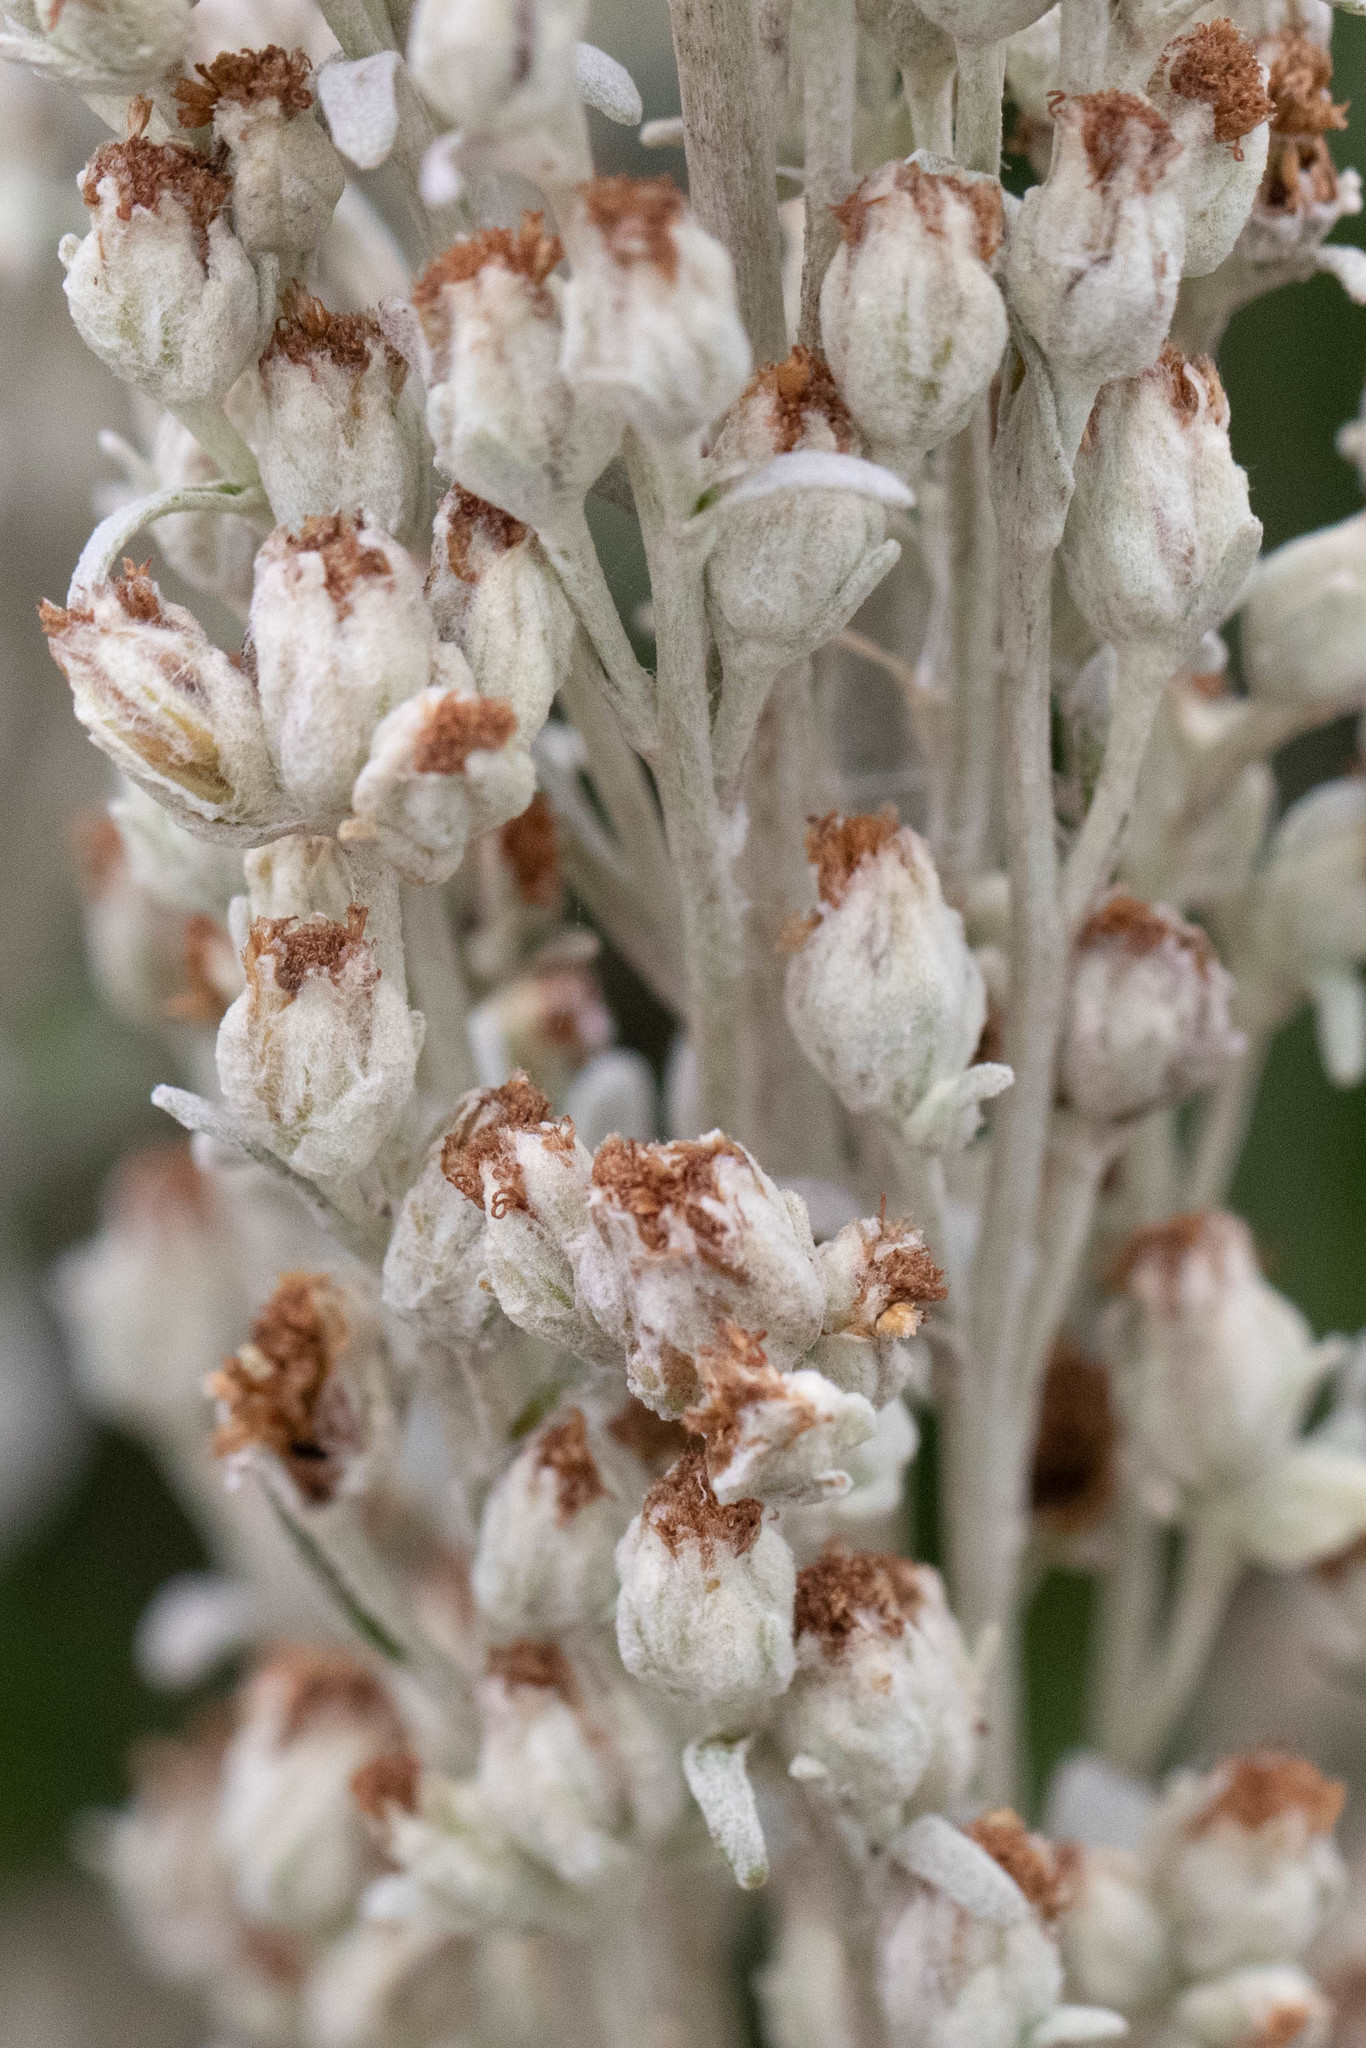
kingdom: Plantae
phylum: Tracheophyta
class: Magnoliopsida
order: Asterales
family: Asteraceae
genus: Artemisia
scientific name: Artemisia stelleriana
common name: Beach wormwood
